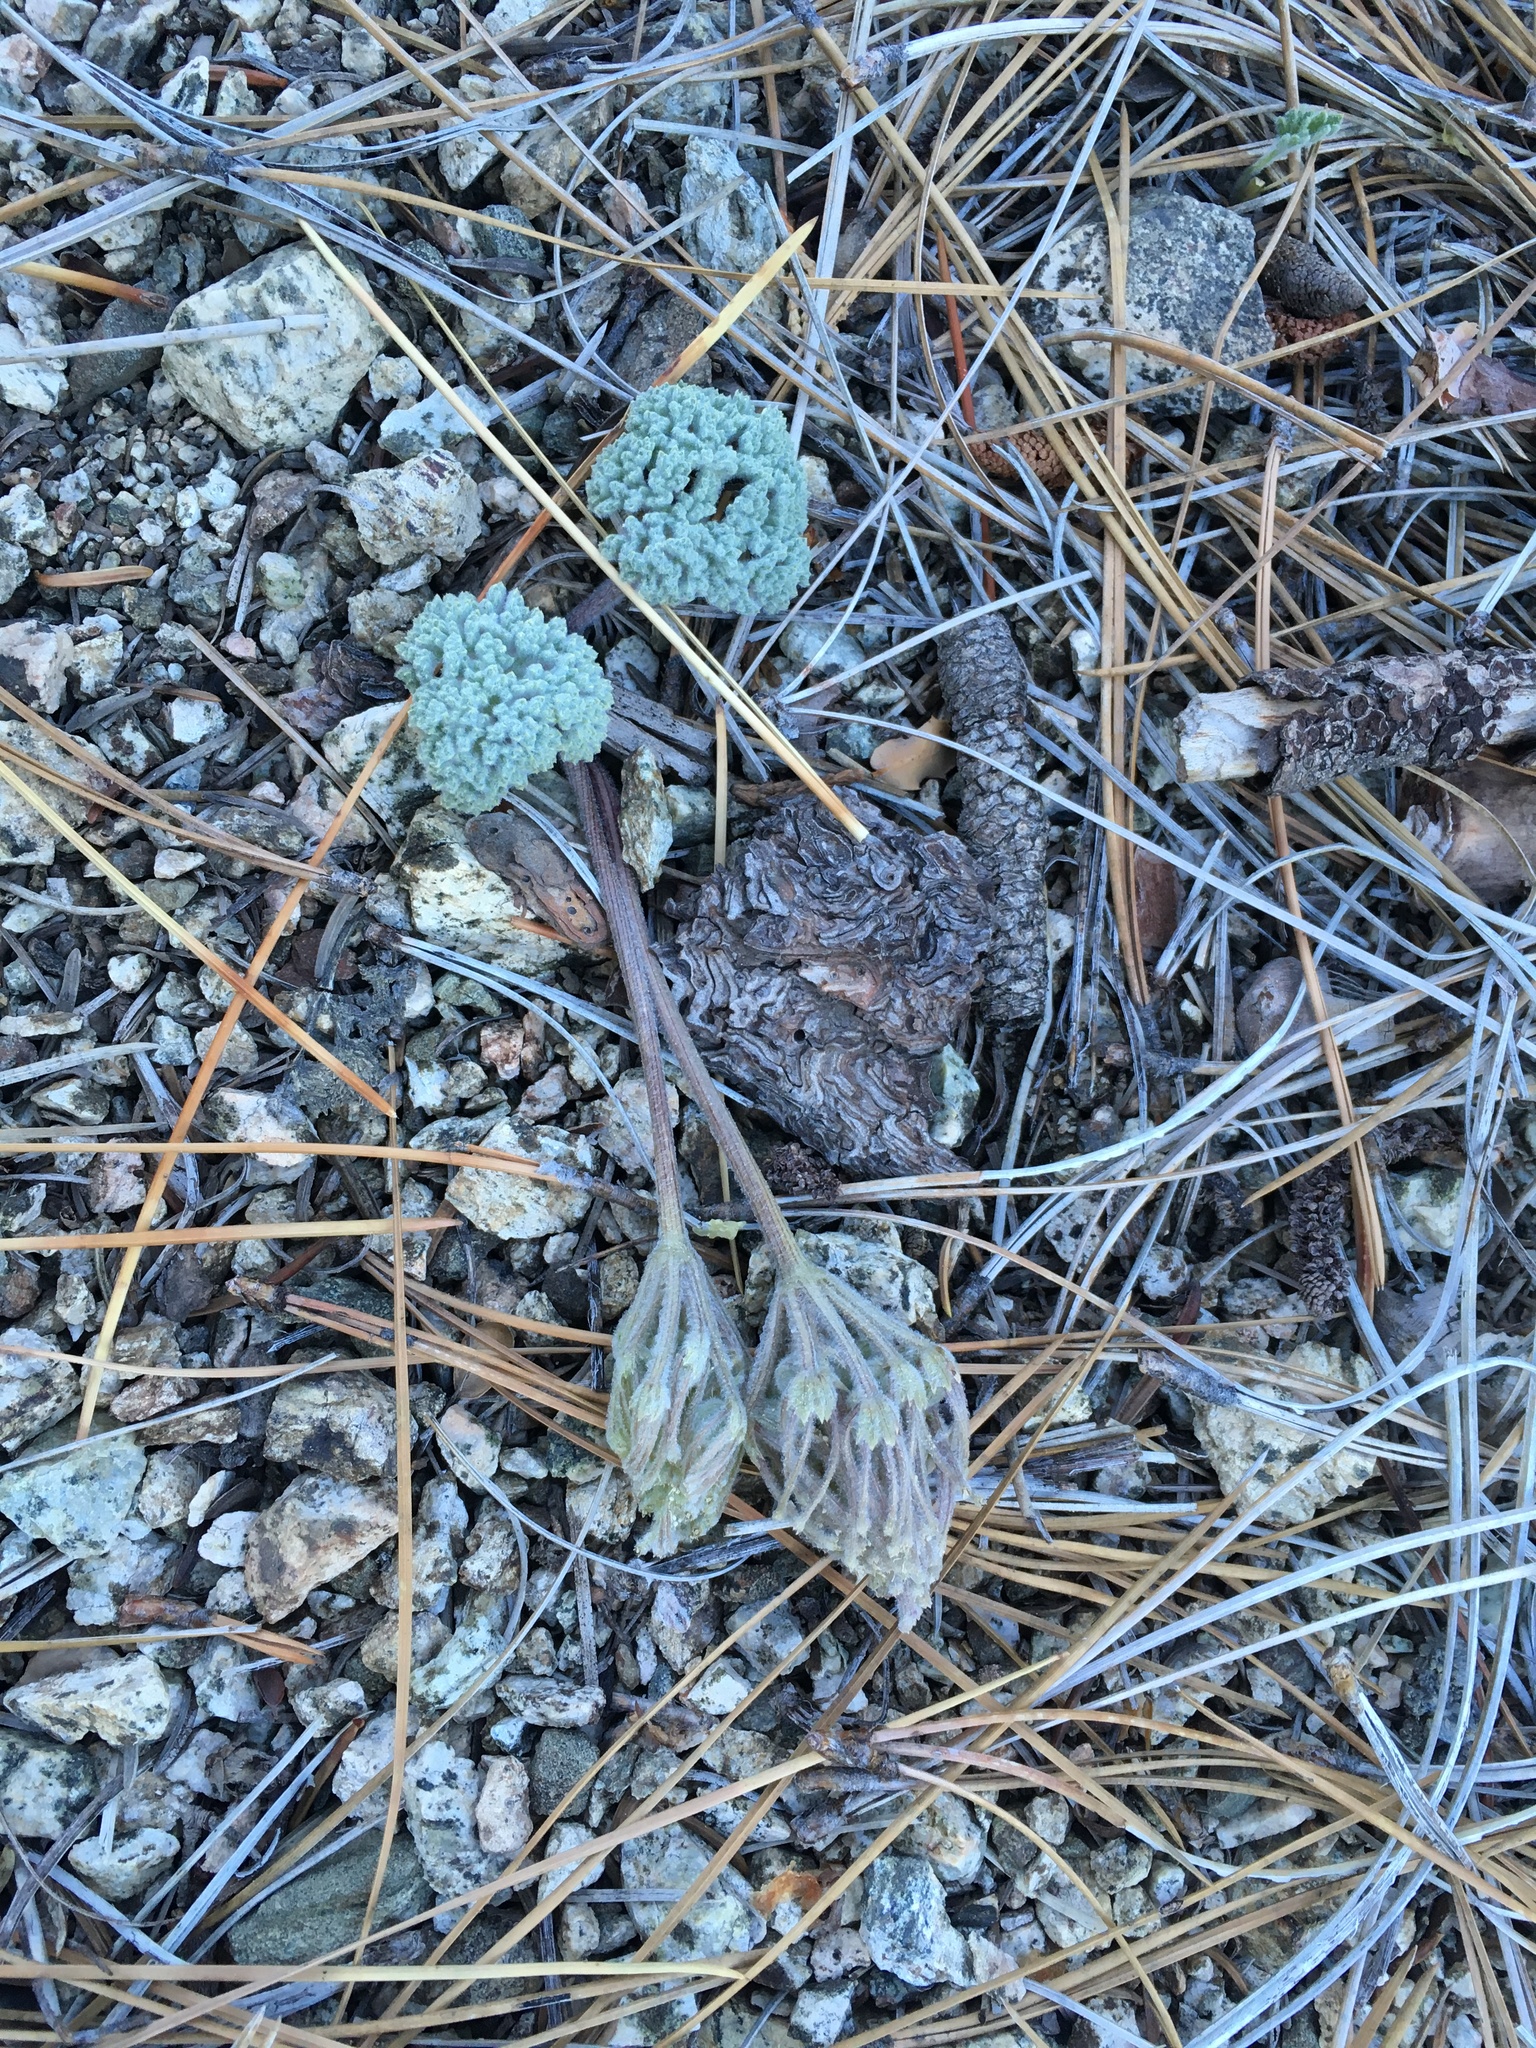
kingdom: Plantae
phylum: Tracheophyta
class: Magnoliopsida
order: Apiales
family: Apiaceae
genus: Oreonana
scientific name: Oreonana vestita
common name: Woolly mountain-parsley
